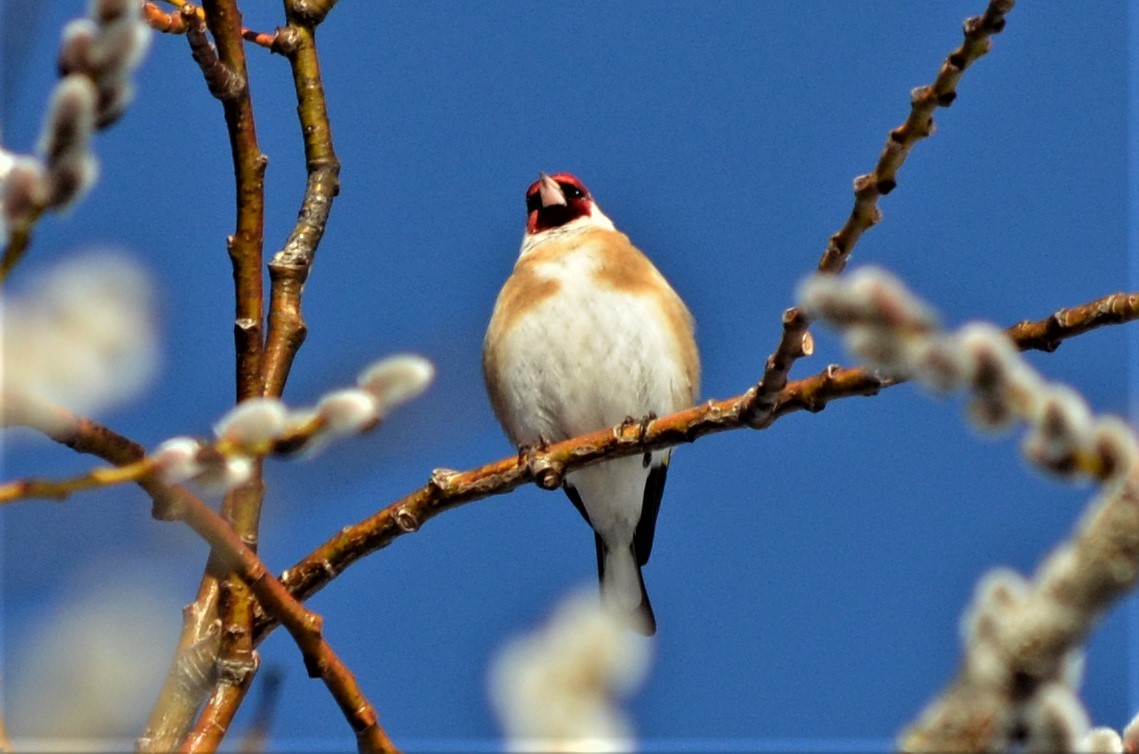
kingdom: Animalia
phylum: Chordata
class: Aves
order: Passeriformes
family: Fringillidae
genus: Carduelis
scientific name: Carduelis carduelis
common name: European goldfinch
